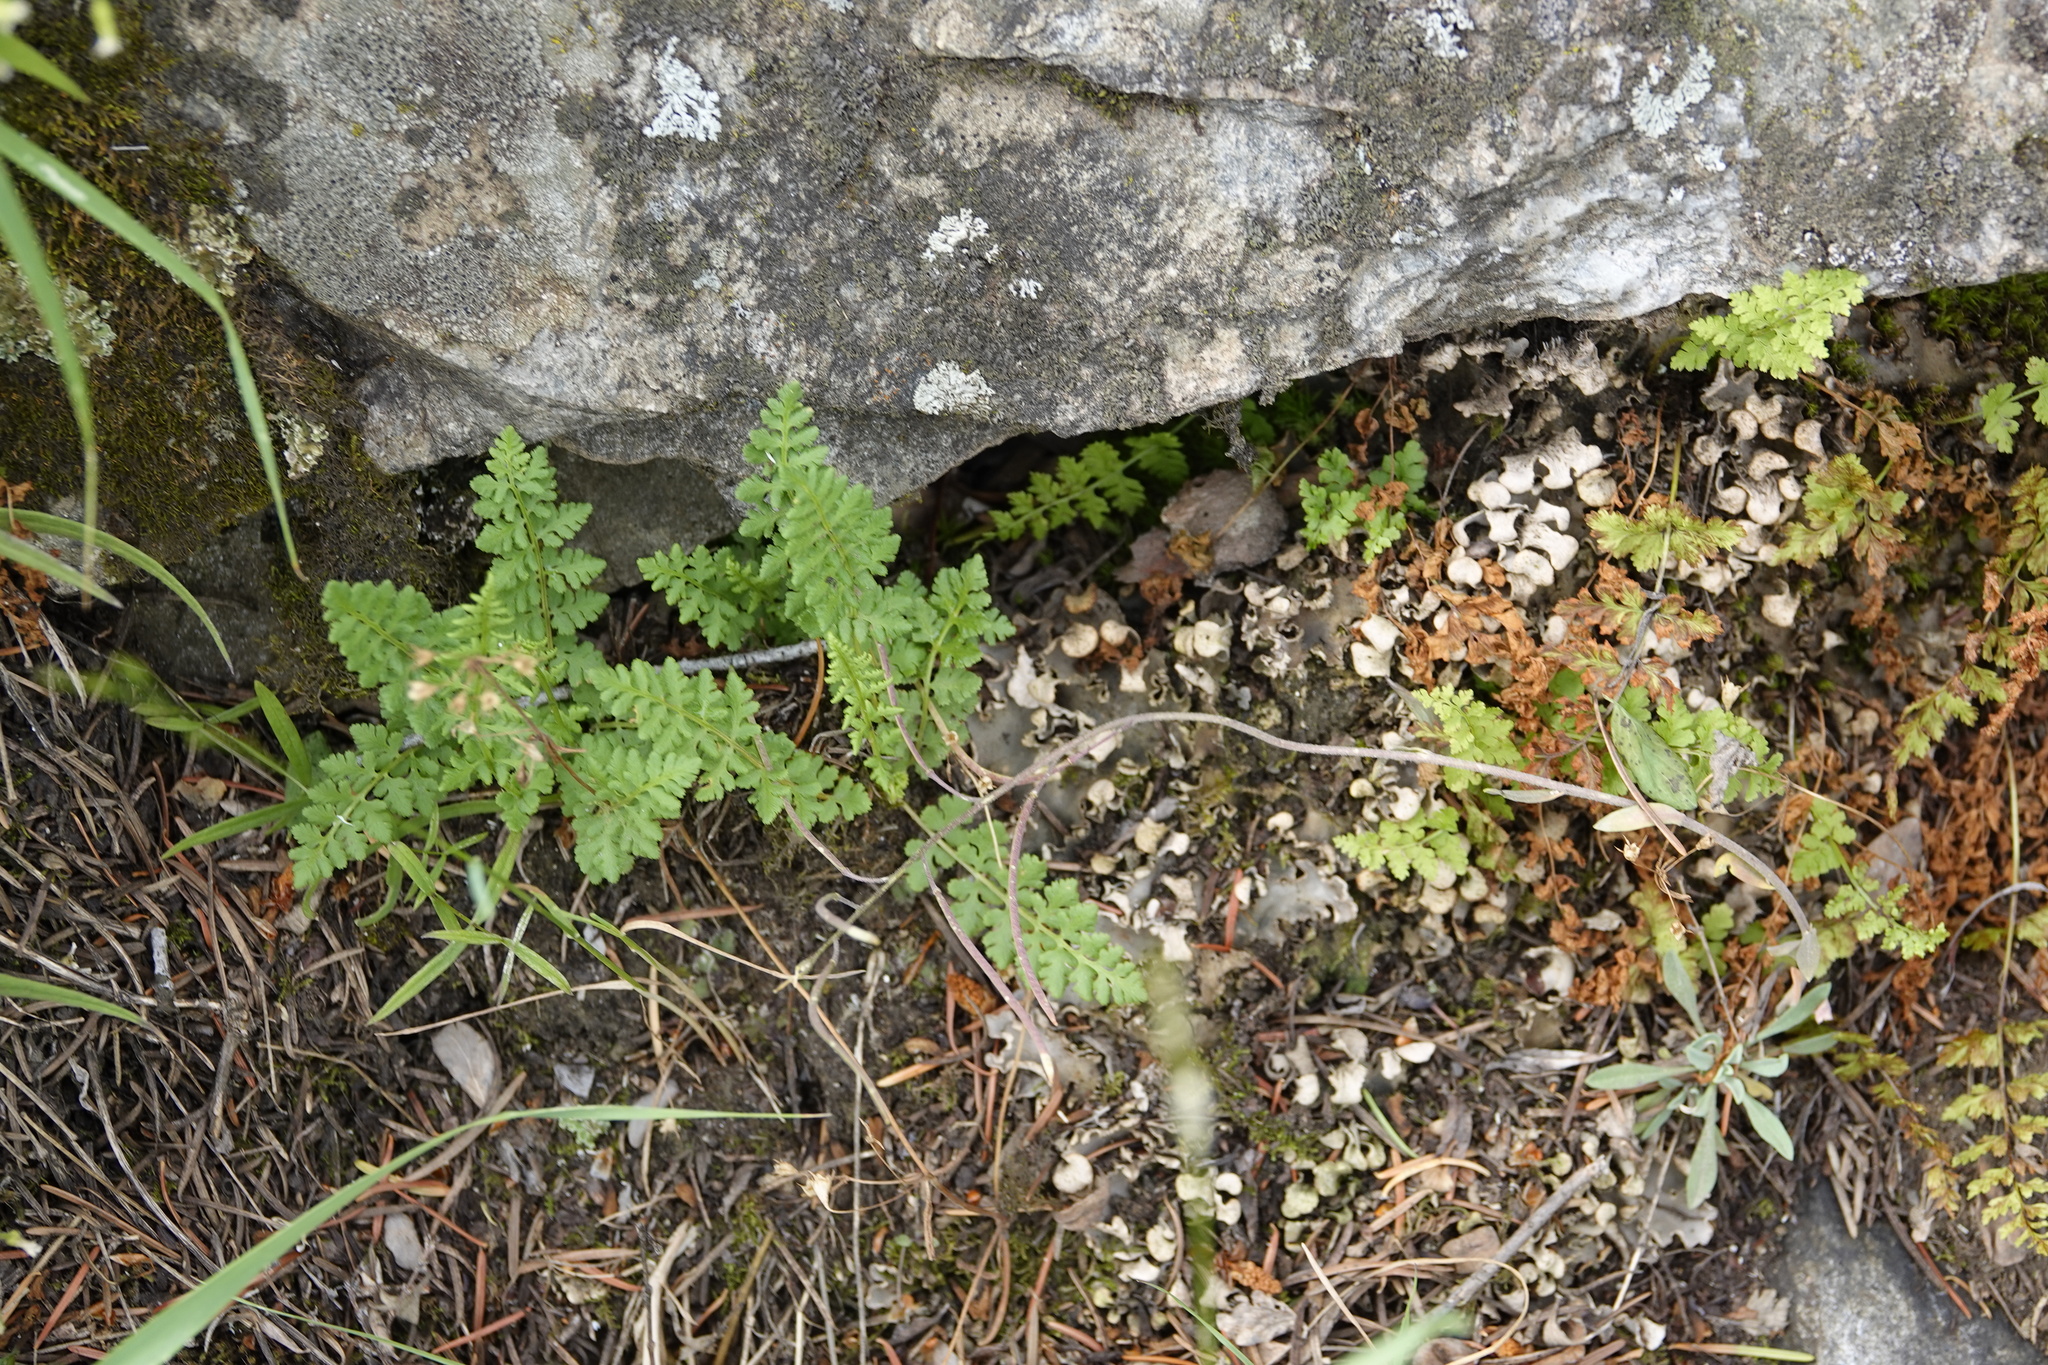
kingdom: Plantae
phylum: Tracheophyta
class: Polypodiopsida
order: Polypodiales
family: Woodsiaceae
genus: Physematium
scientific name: Physematium oreganum
